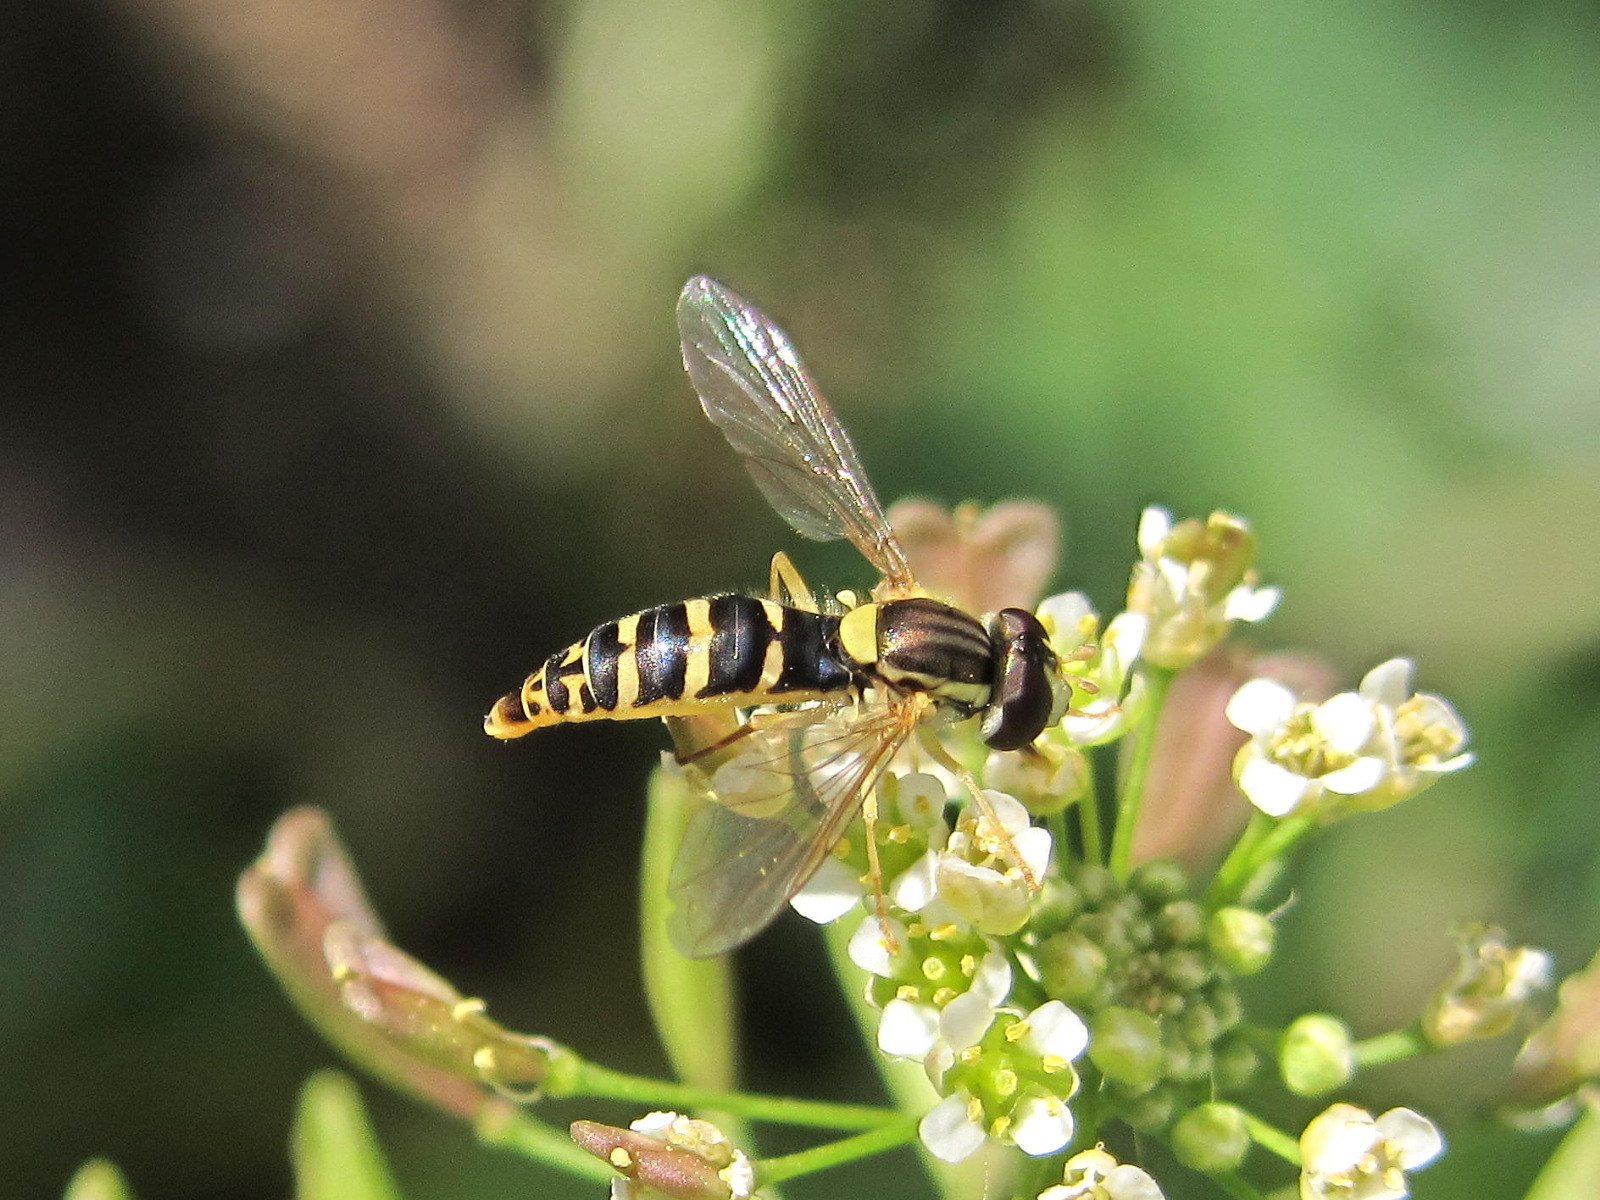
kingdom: Animalia
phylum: Arthropoda
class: Insecta
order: Diptera
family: Syrphidae
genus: Sphaerophoria
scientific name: Sphaerophoria
